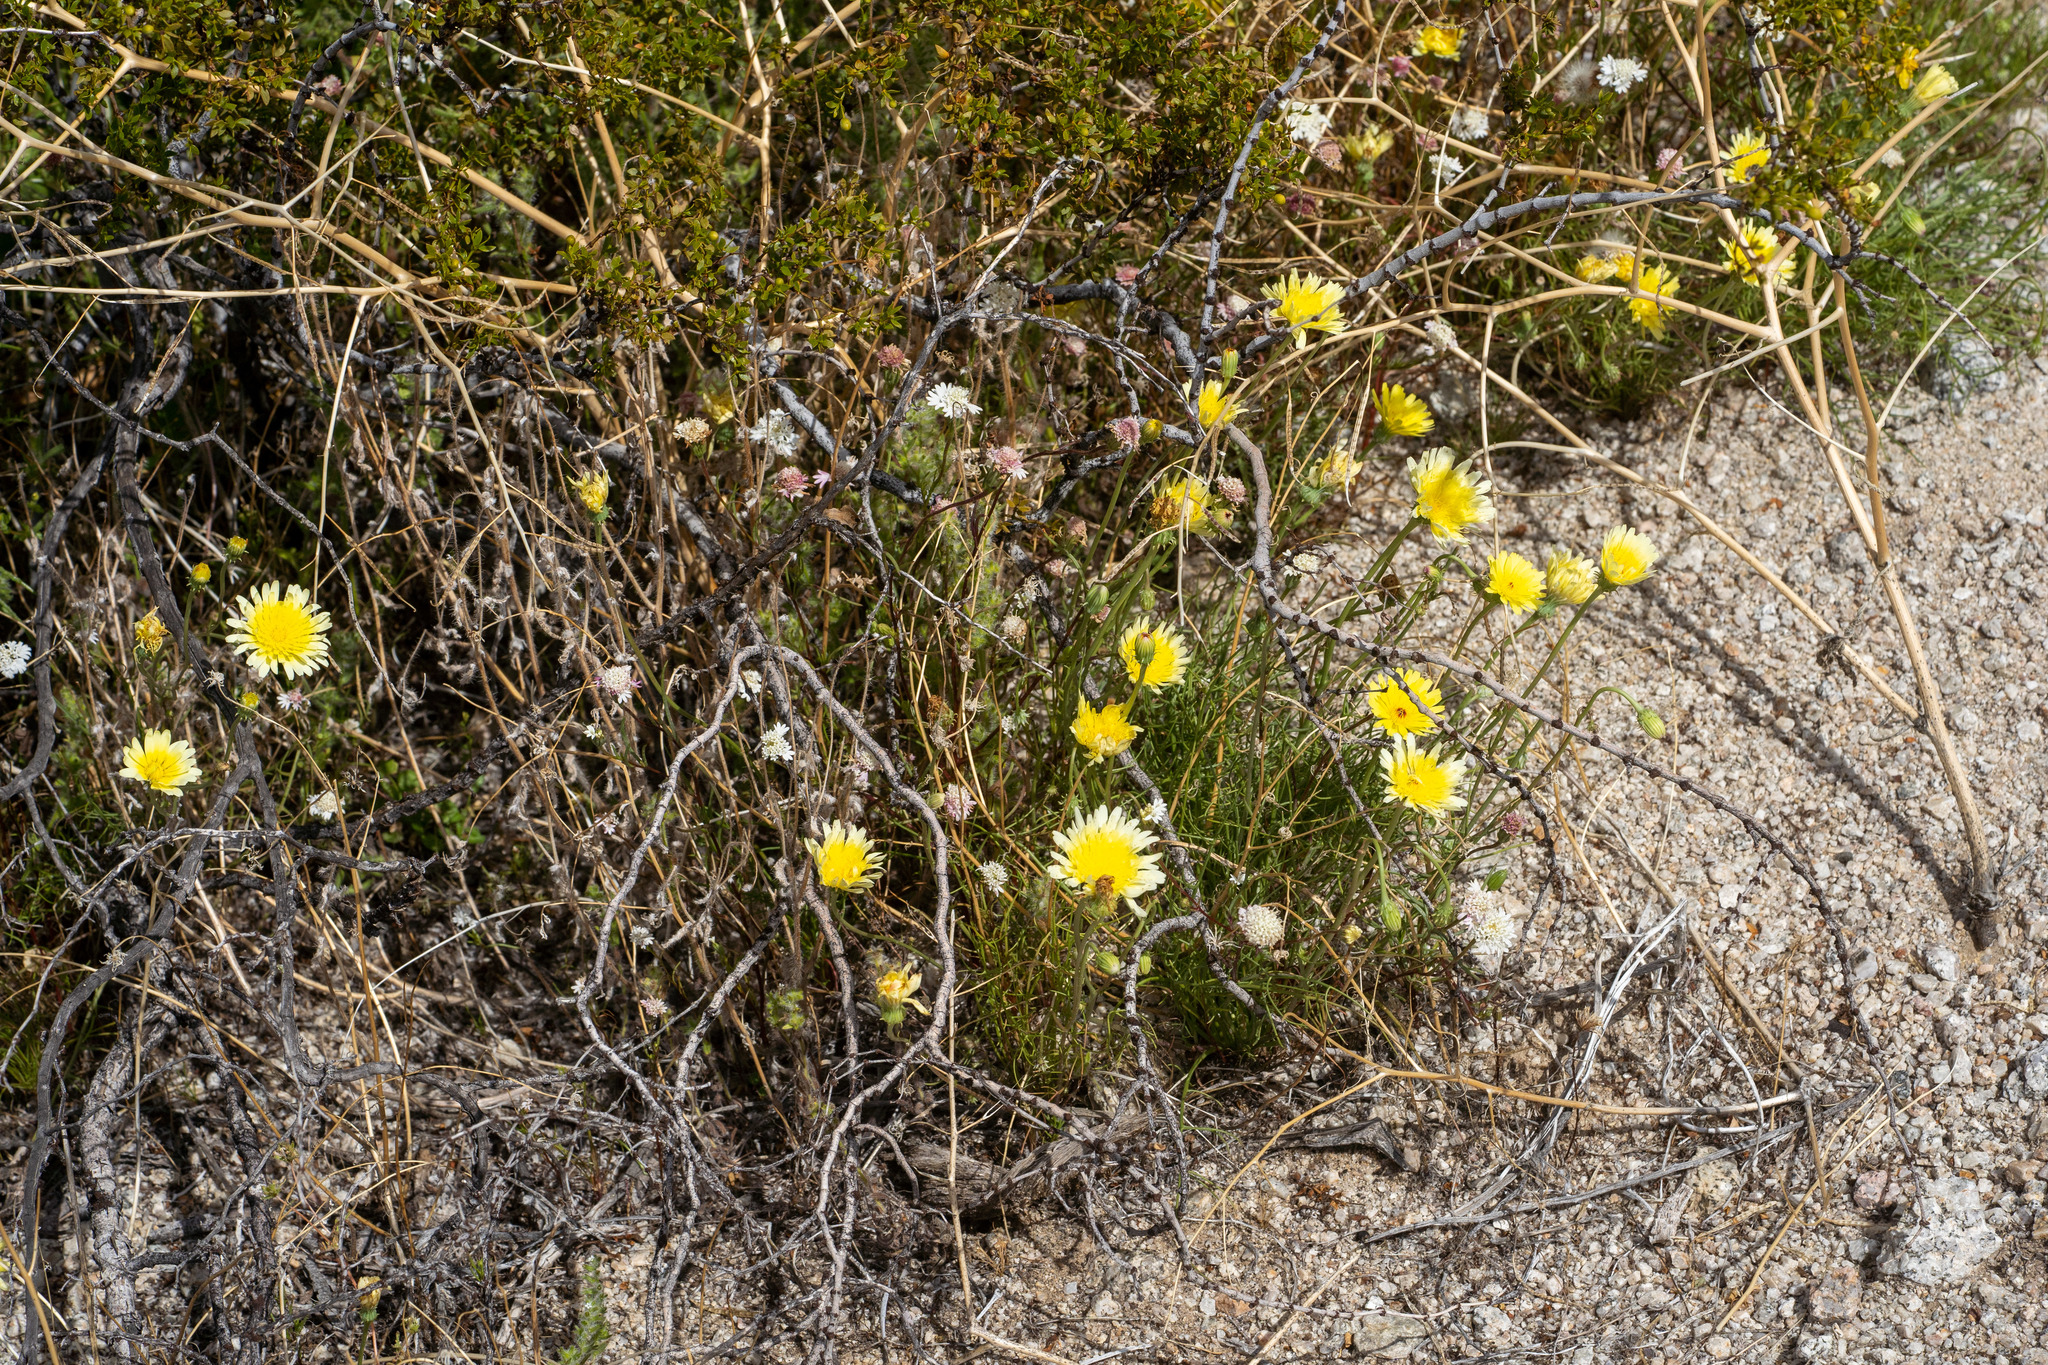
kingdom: Plantae
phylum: Tracheophyta
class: Magnoliopsida
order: Asterales
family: Asteraceae
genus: Malacothrix
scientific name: Malacothrix glabrata
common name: Smooth desert-dandelion
